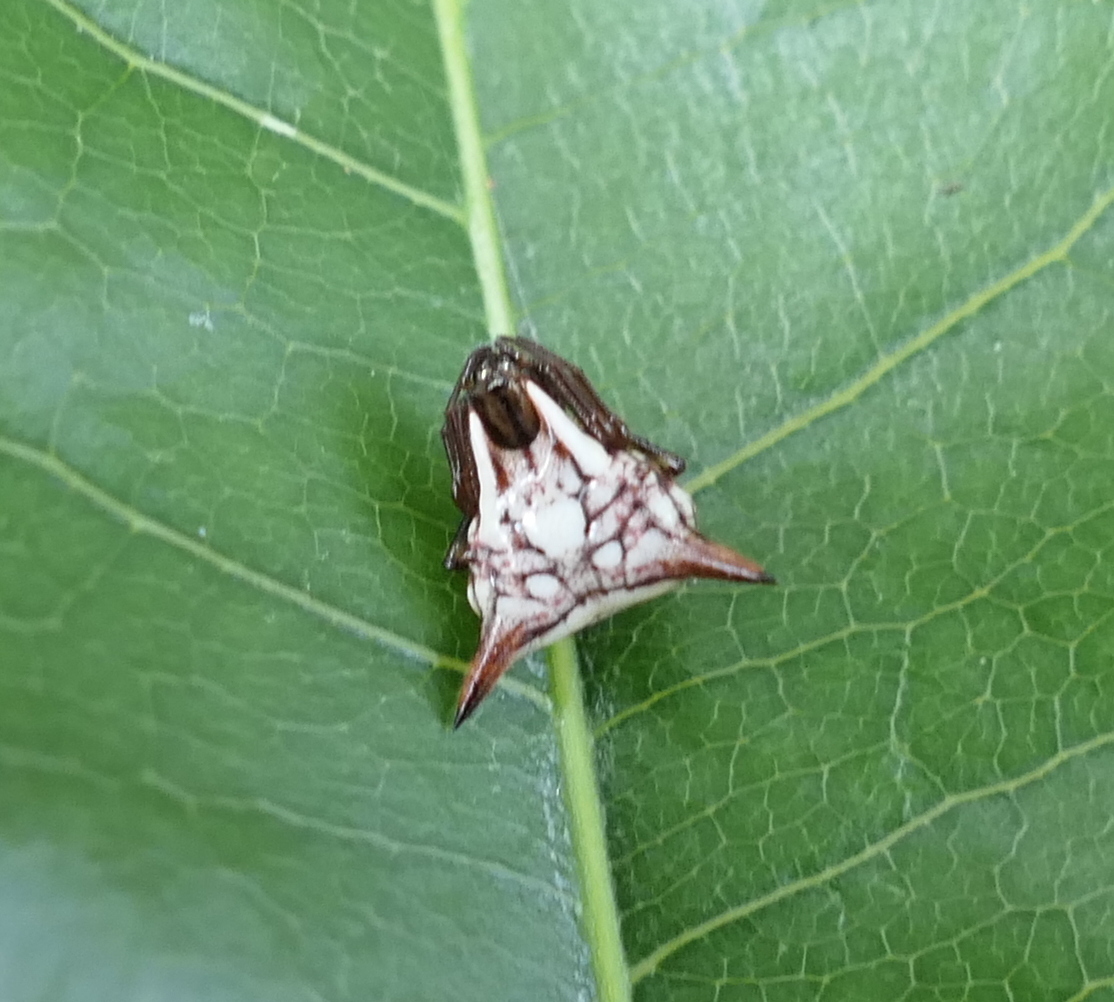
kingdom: Animalia
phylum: Arthropoda
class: Arachnida
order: Araneae
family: Araneidae
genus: Micrathena
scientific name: Micrathena evansi
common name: Orb weavers
